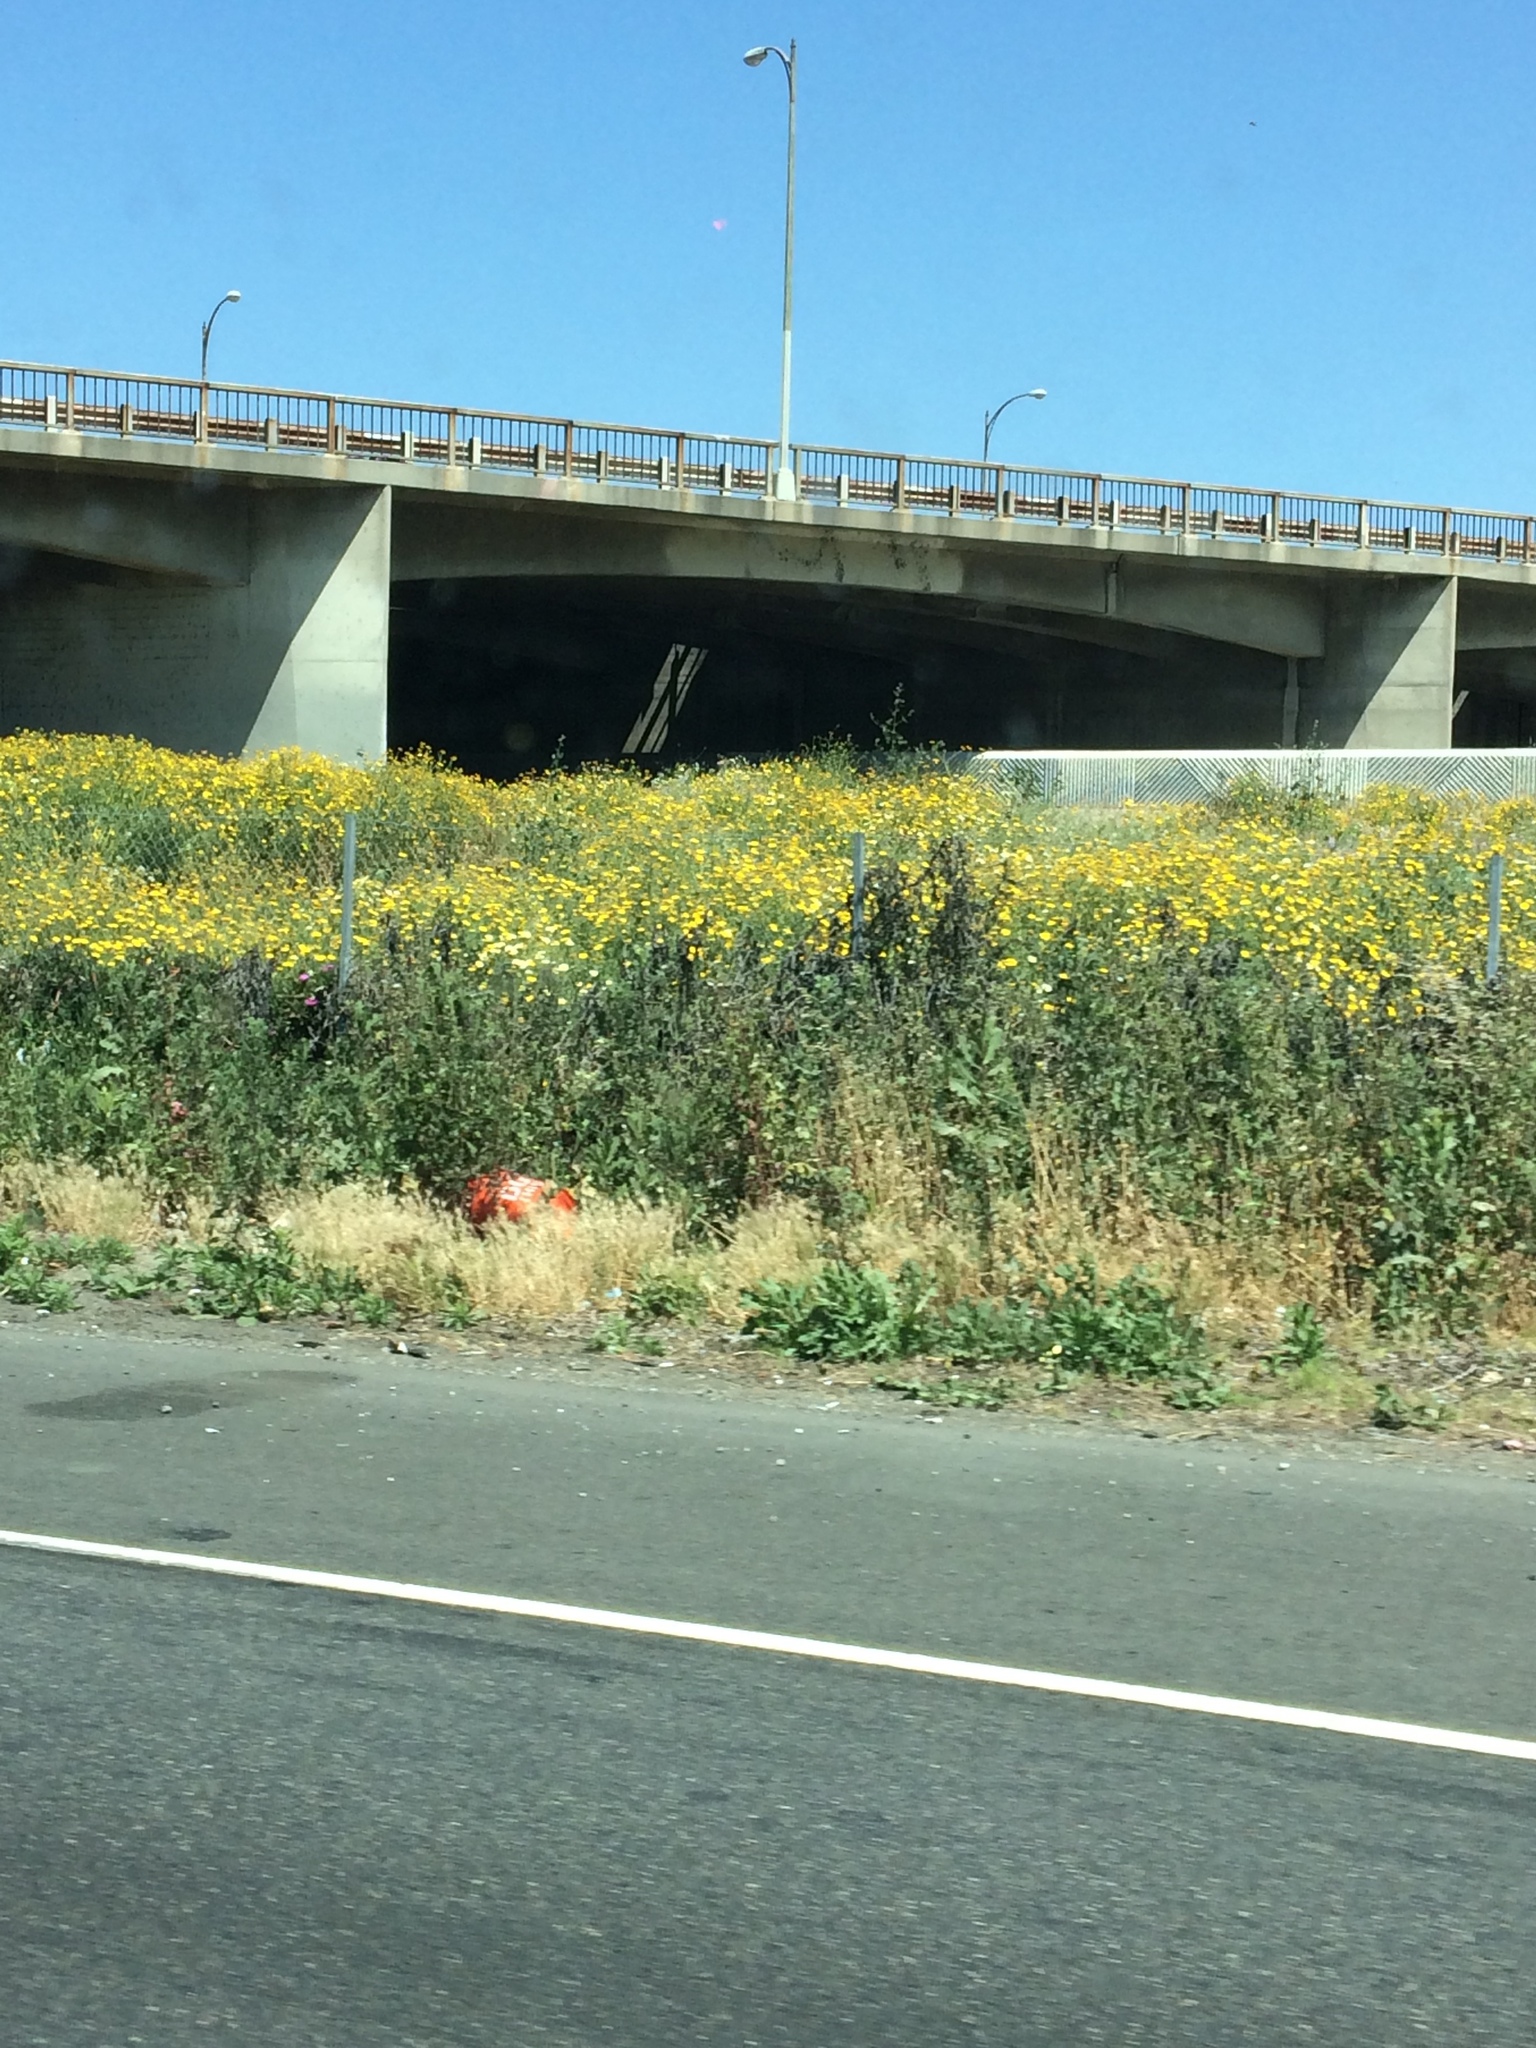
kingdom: Plantae
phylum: Tracheophyta
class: Magnoliopsida
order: Asterales
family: Asteraceae
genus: Glebionis
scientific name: Glebionis coronaria
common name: Crowndaisy
